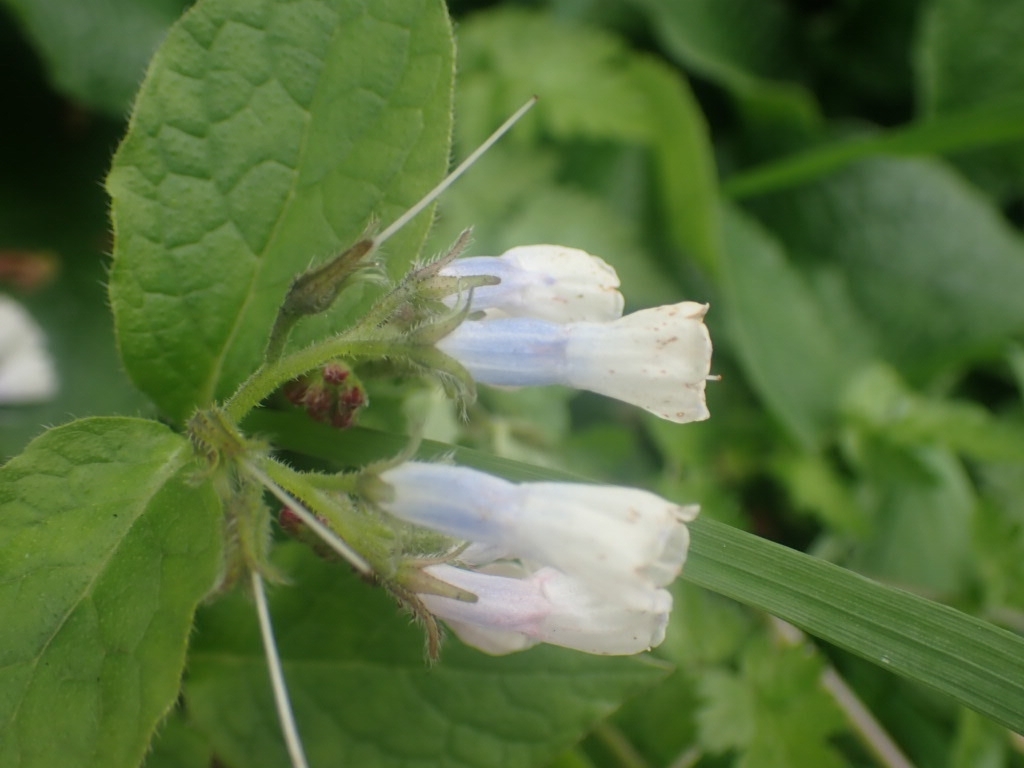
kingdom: Plantae
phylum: Tracheophyta
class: Magnoliopsida
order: Boraginales
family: Boraginaceae
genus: Symphytum
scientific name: Symphytum hidcotense
